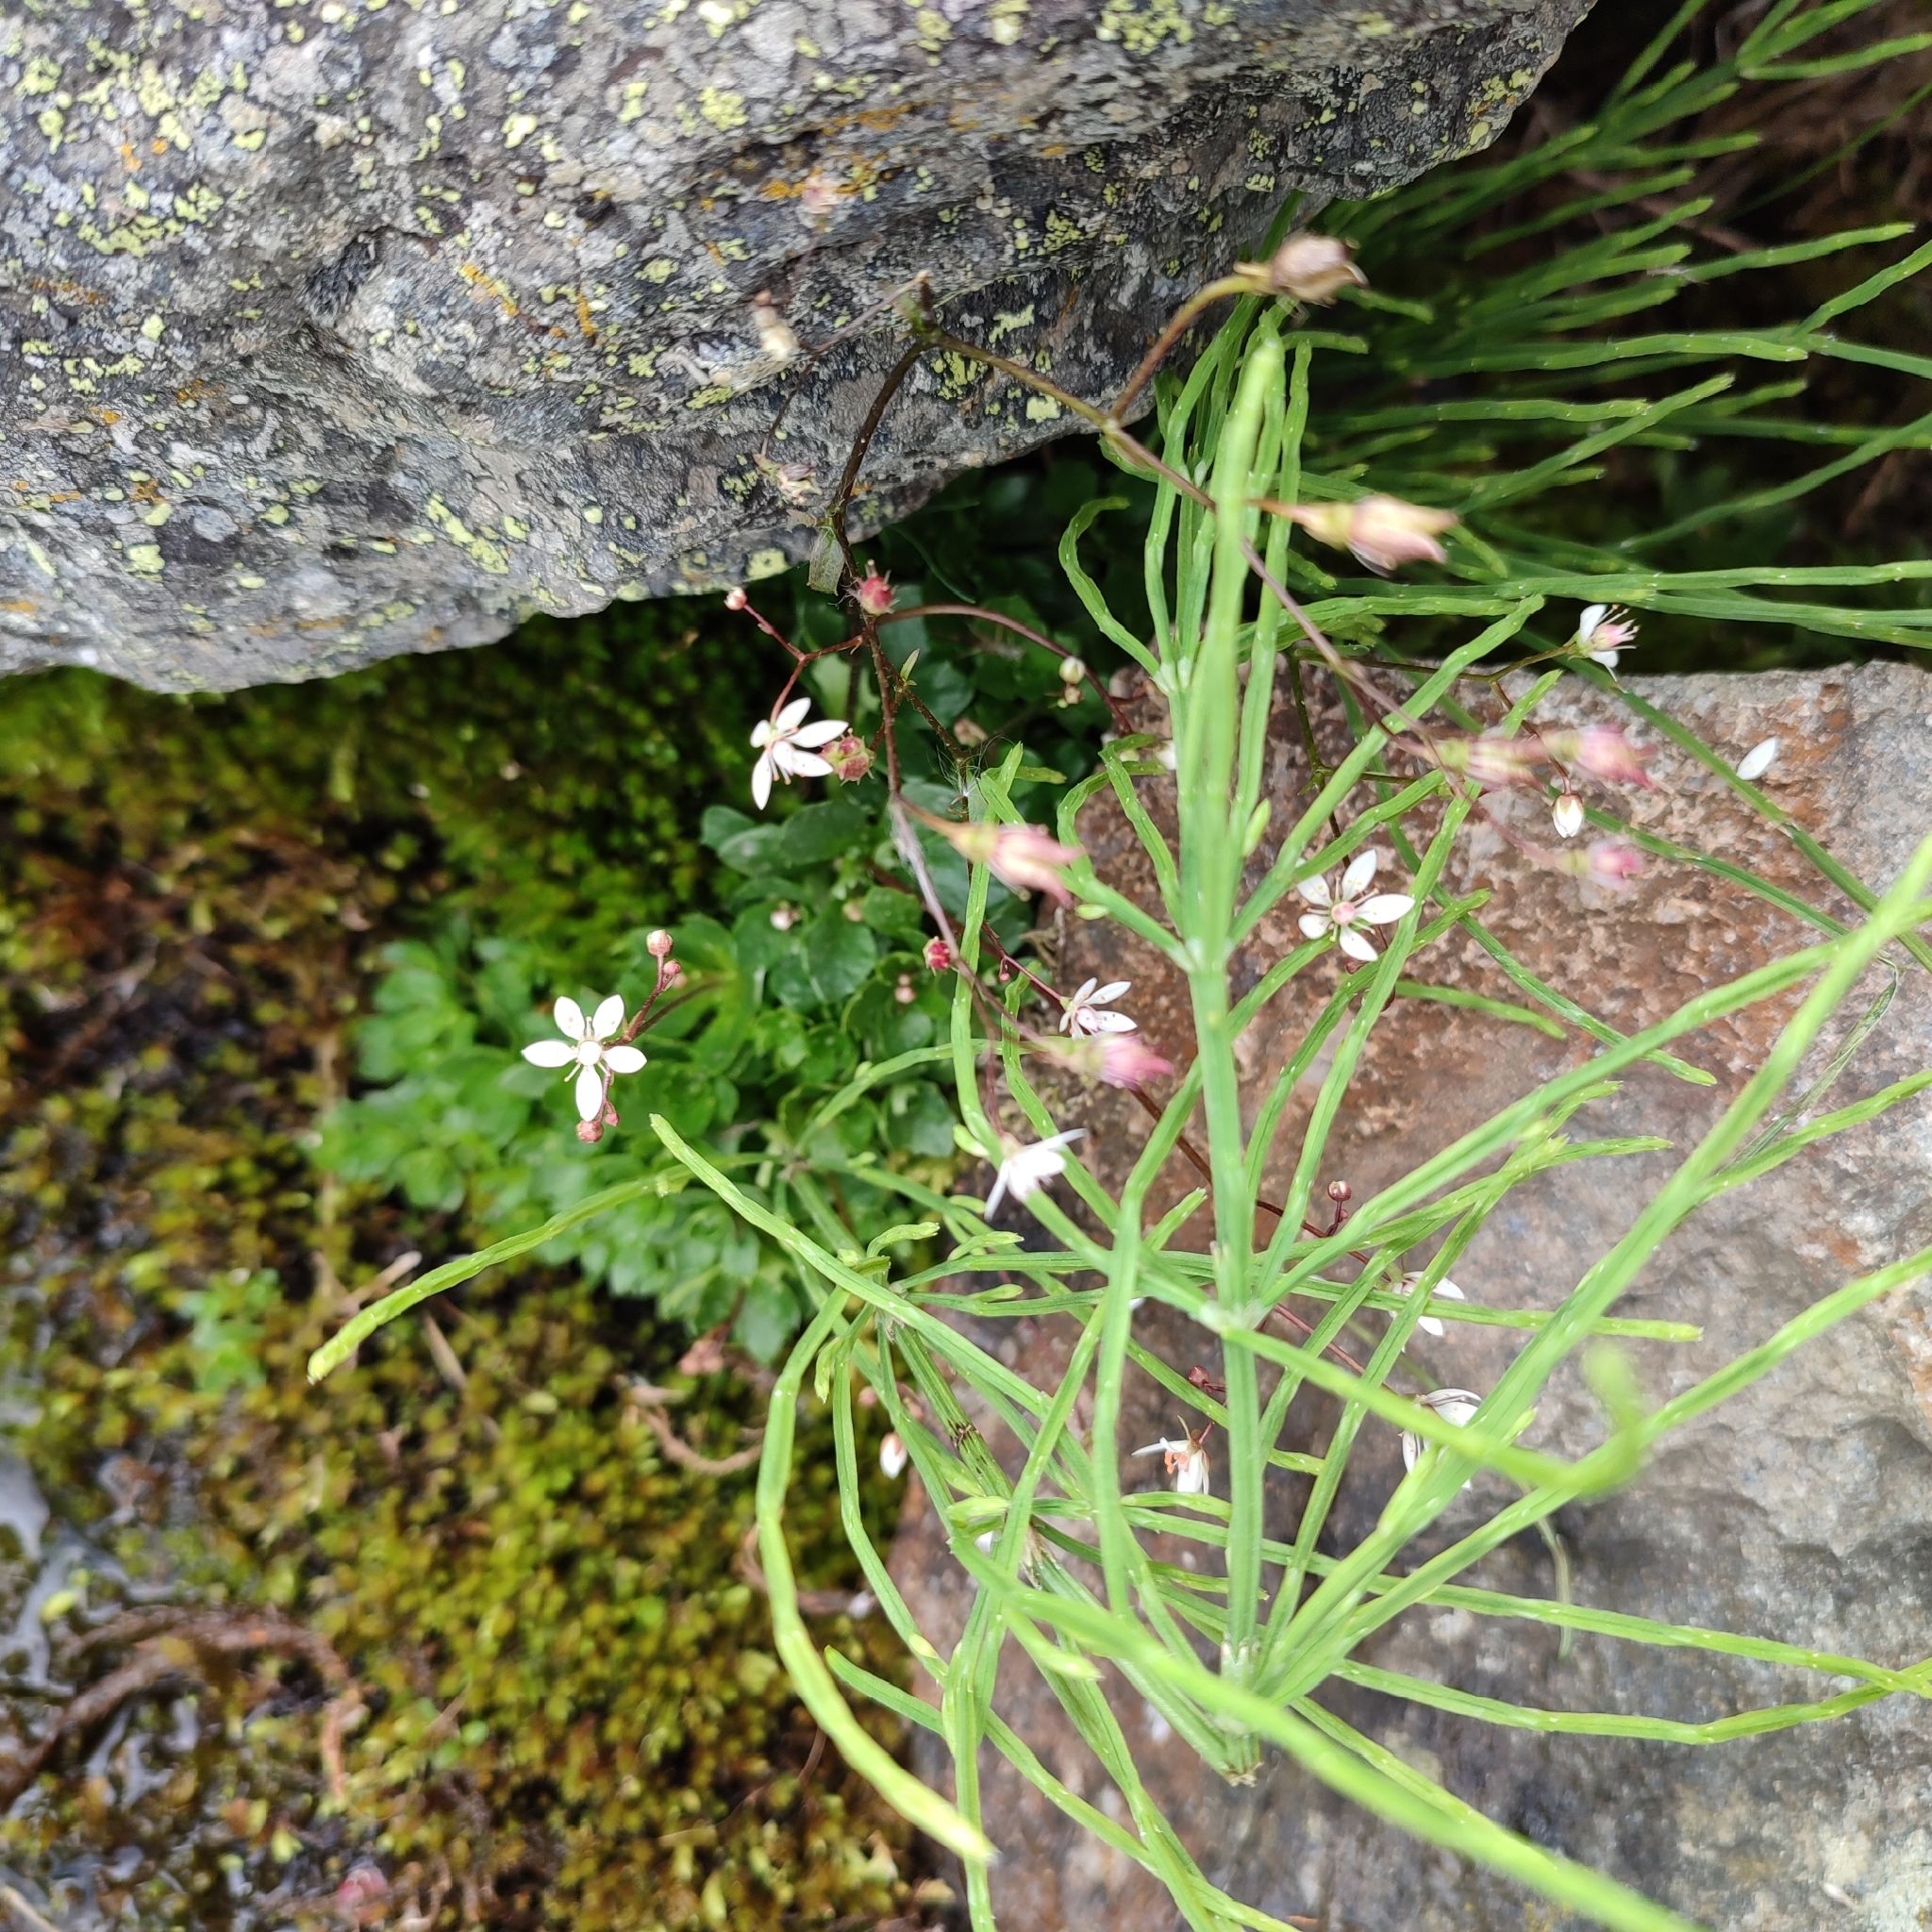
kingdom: Plantae
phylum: Tracheophyta
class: Magnoliopsida
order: Saxifragales
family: Saxifragaceae
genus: Micranthes
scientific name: Micranthes stellaris
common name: Starry saxifrage
